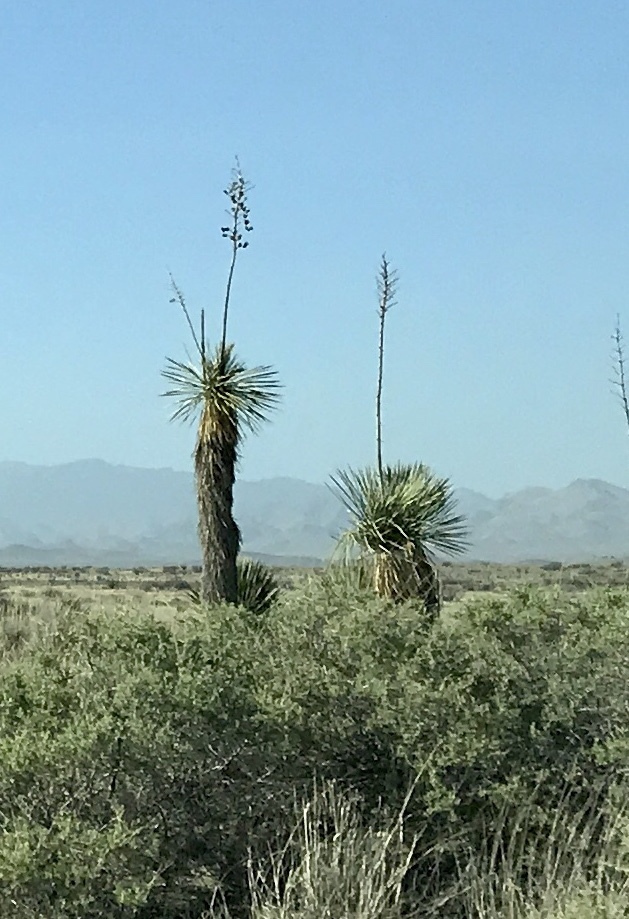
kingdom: Plantae
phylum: Tracheophyta
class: Liliopsida
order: Asparagales
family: Asparagaceae
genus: Yucca
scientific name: Yucca elata
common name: Palmella
